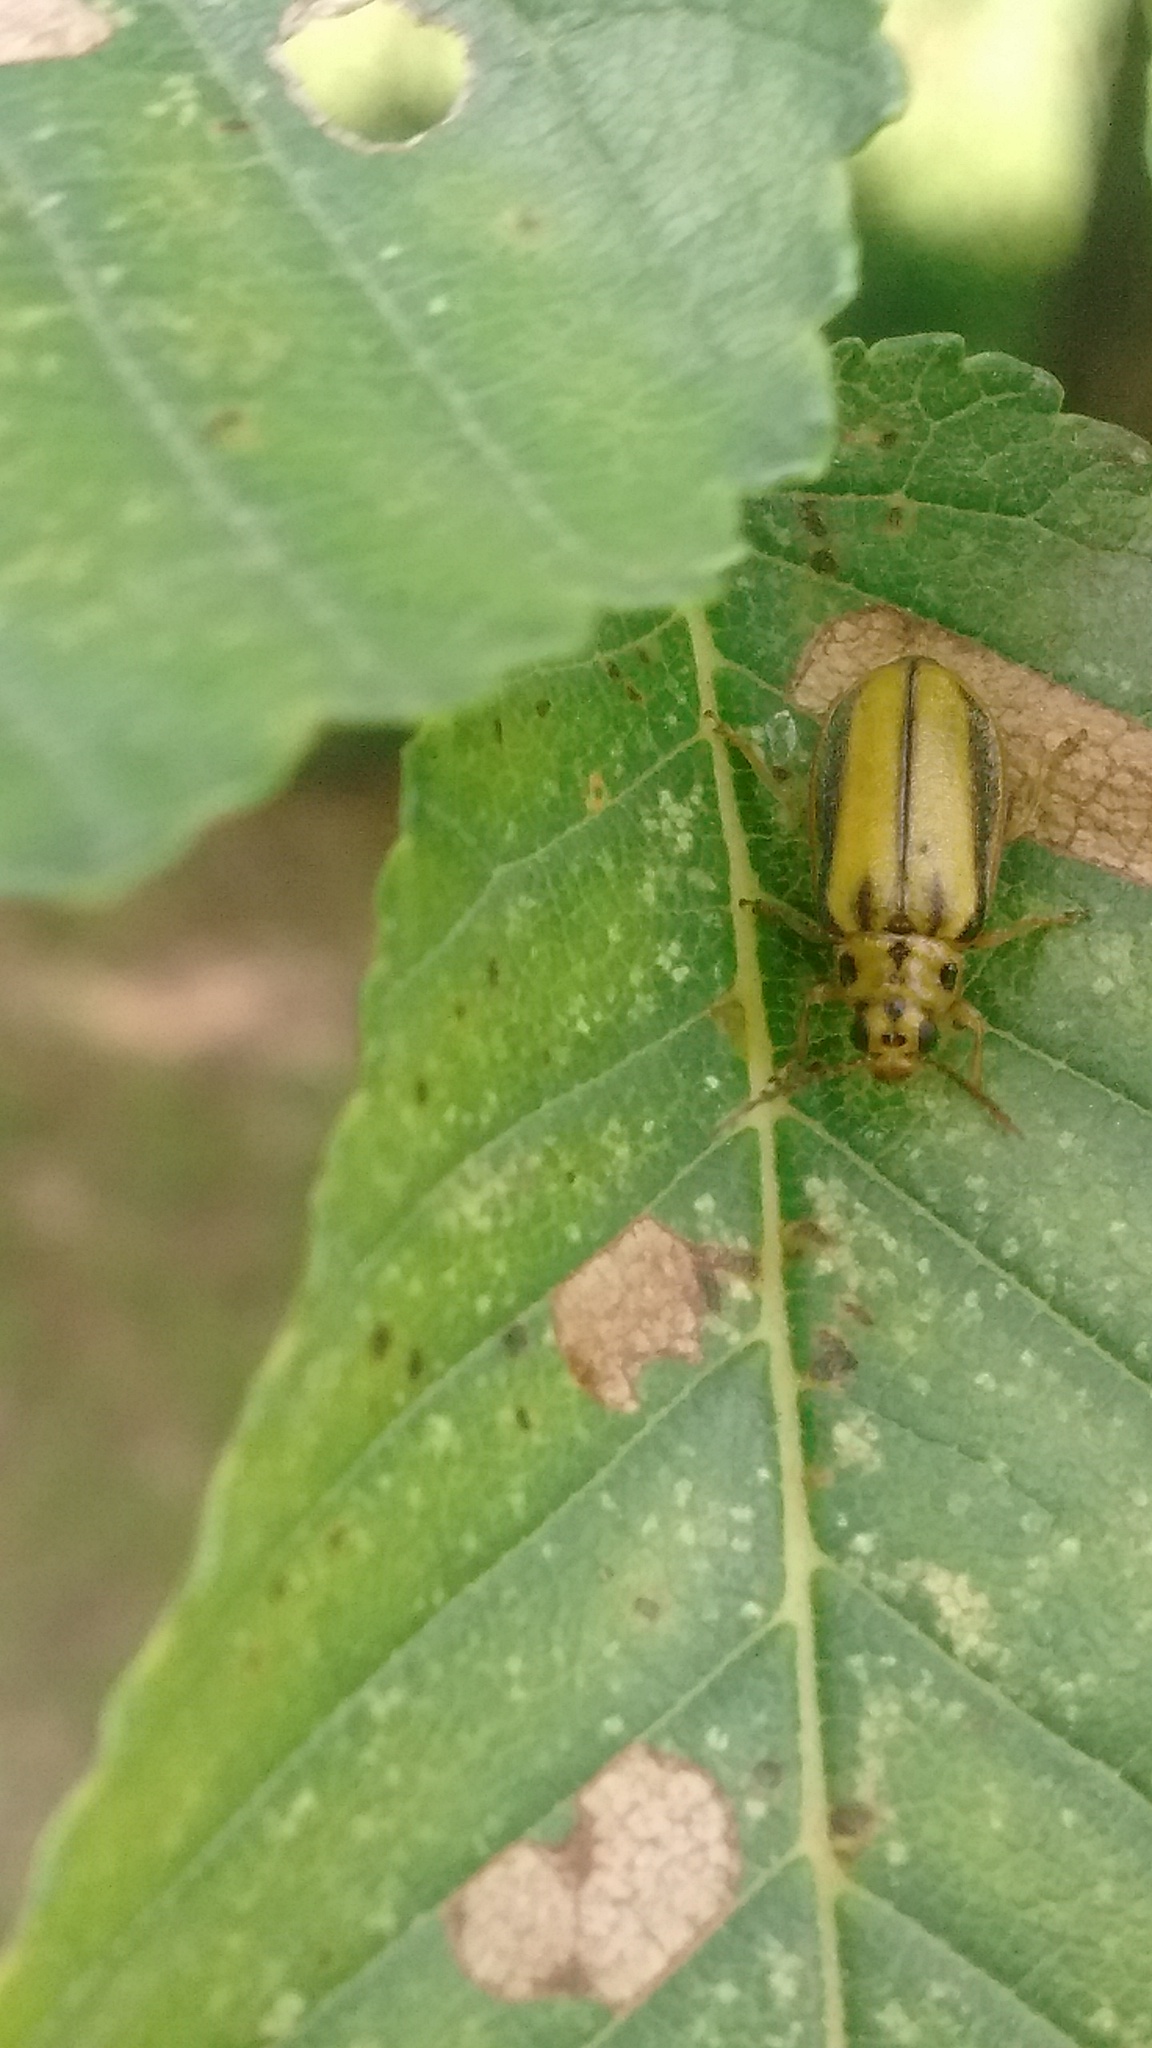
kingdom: Animalia
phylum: Arthropoda
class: Insecta
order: Coleoptera
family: Chrysomelidae
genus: Xanthogaleruca
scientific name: Xanthogaleruca luteola
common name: Elm leaf beetle
